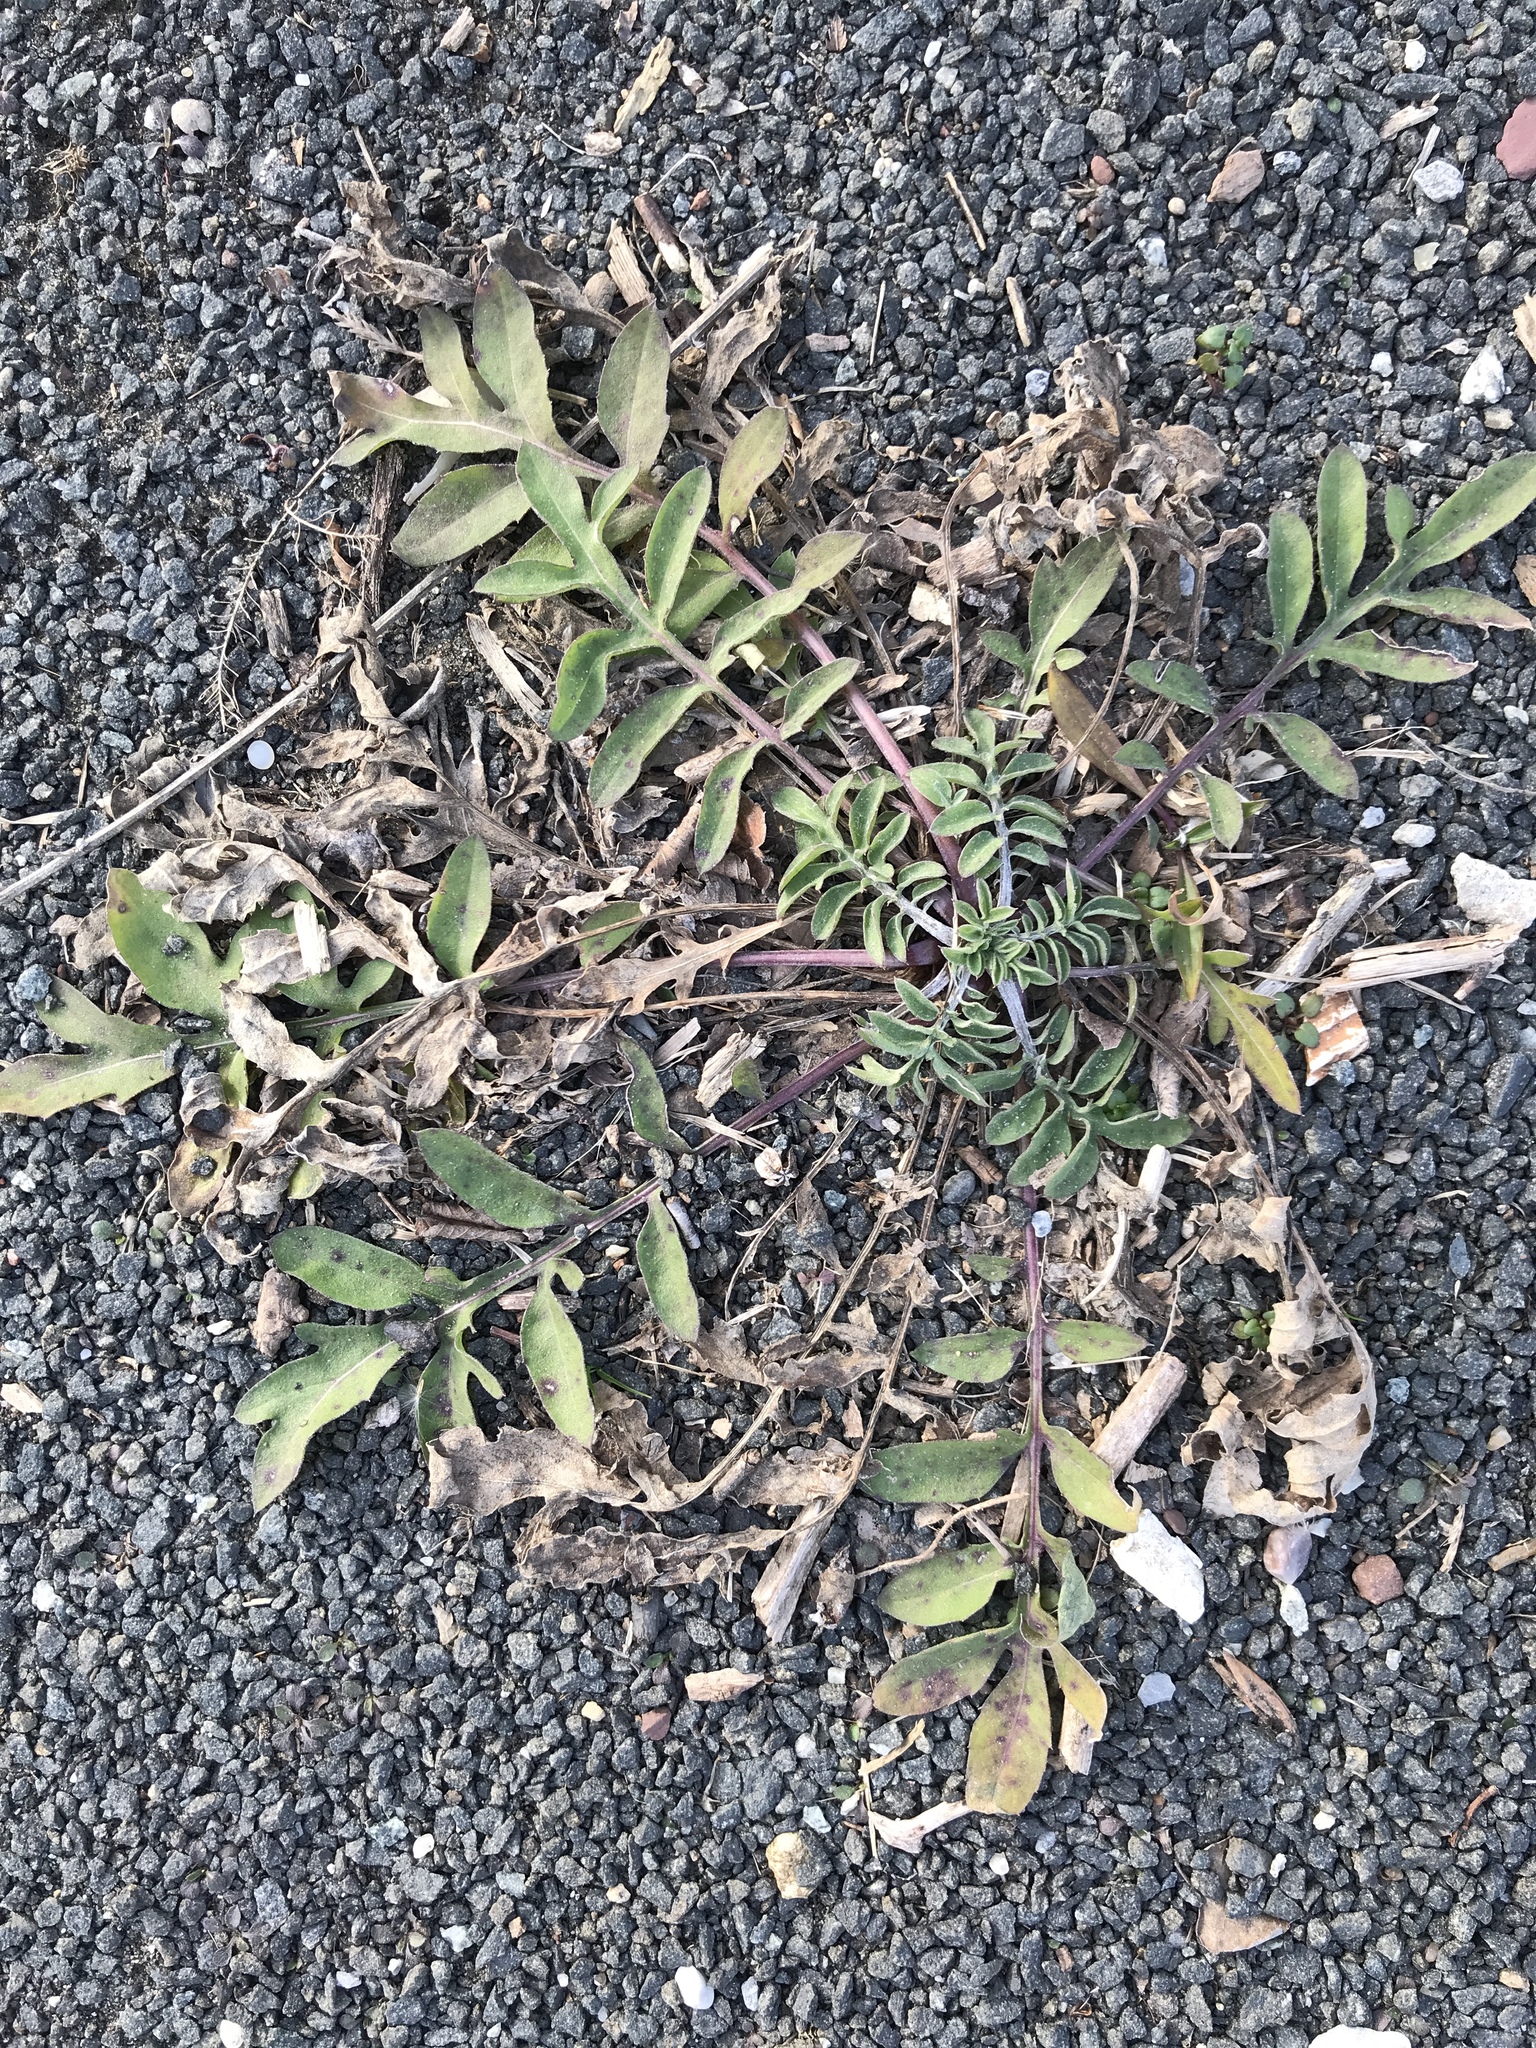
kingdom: Plantae
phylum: Tracheophyta
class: Magnoliopsida
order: Asterales
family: Asteraceae
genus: Centaurea
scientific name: Centaurea stoebe
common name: Spotted knapweed
